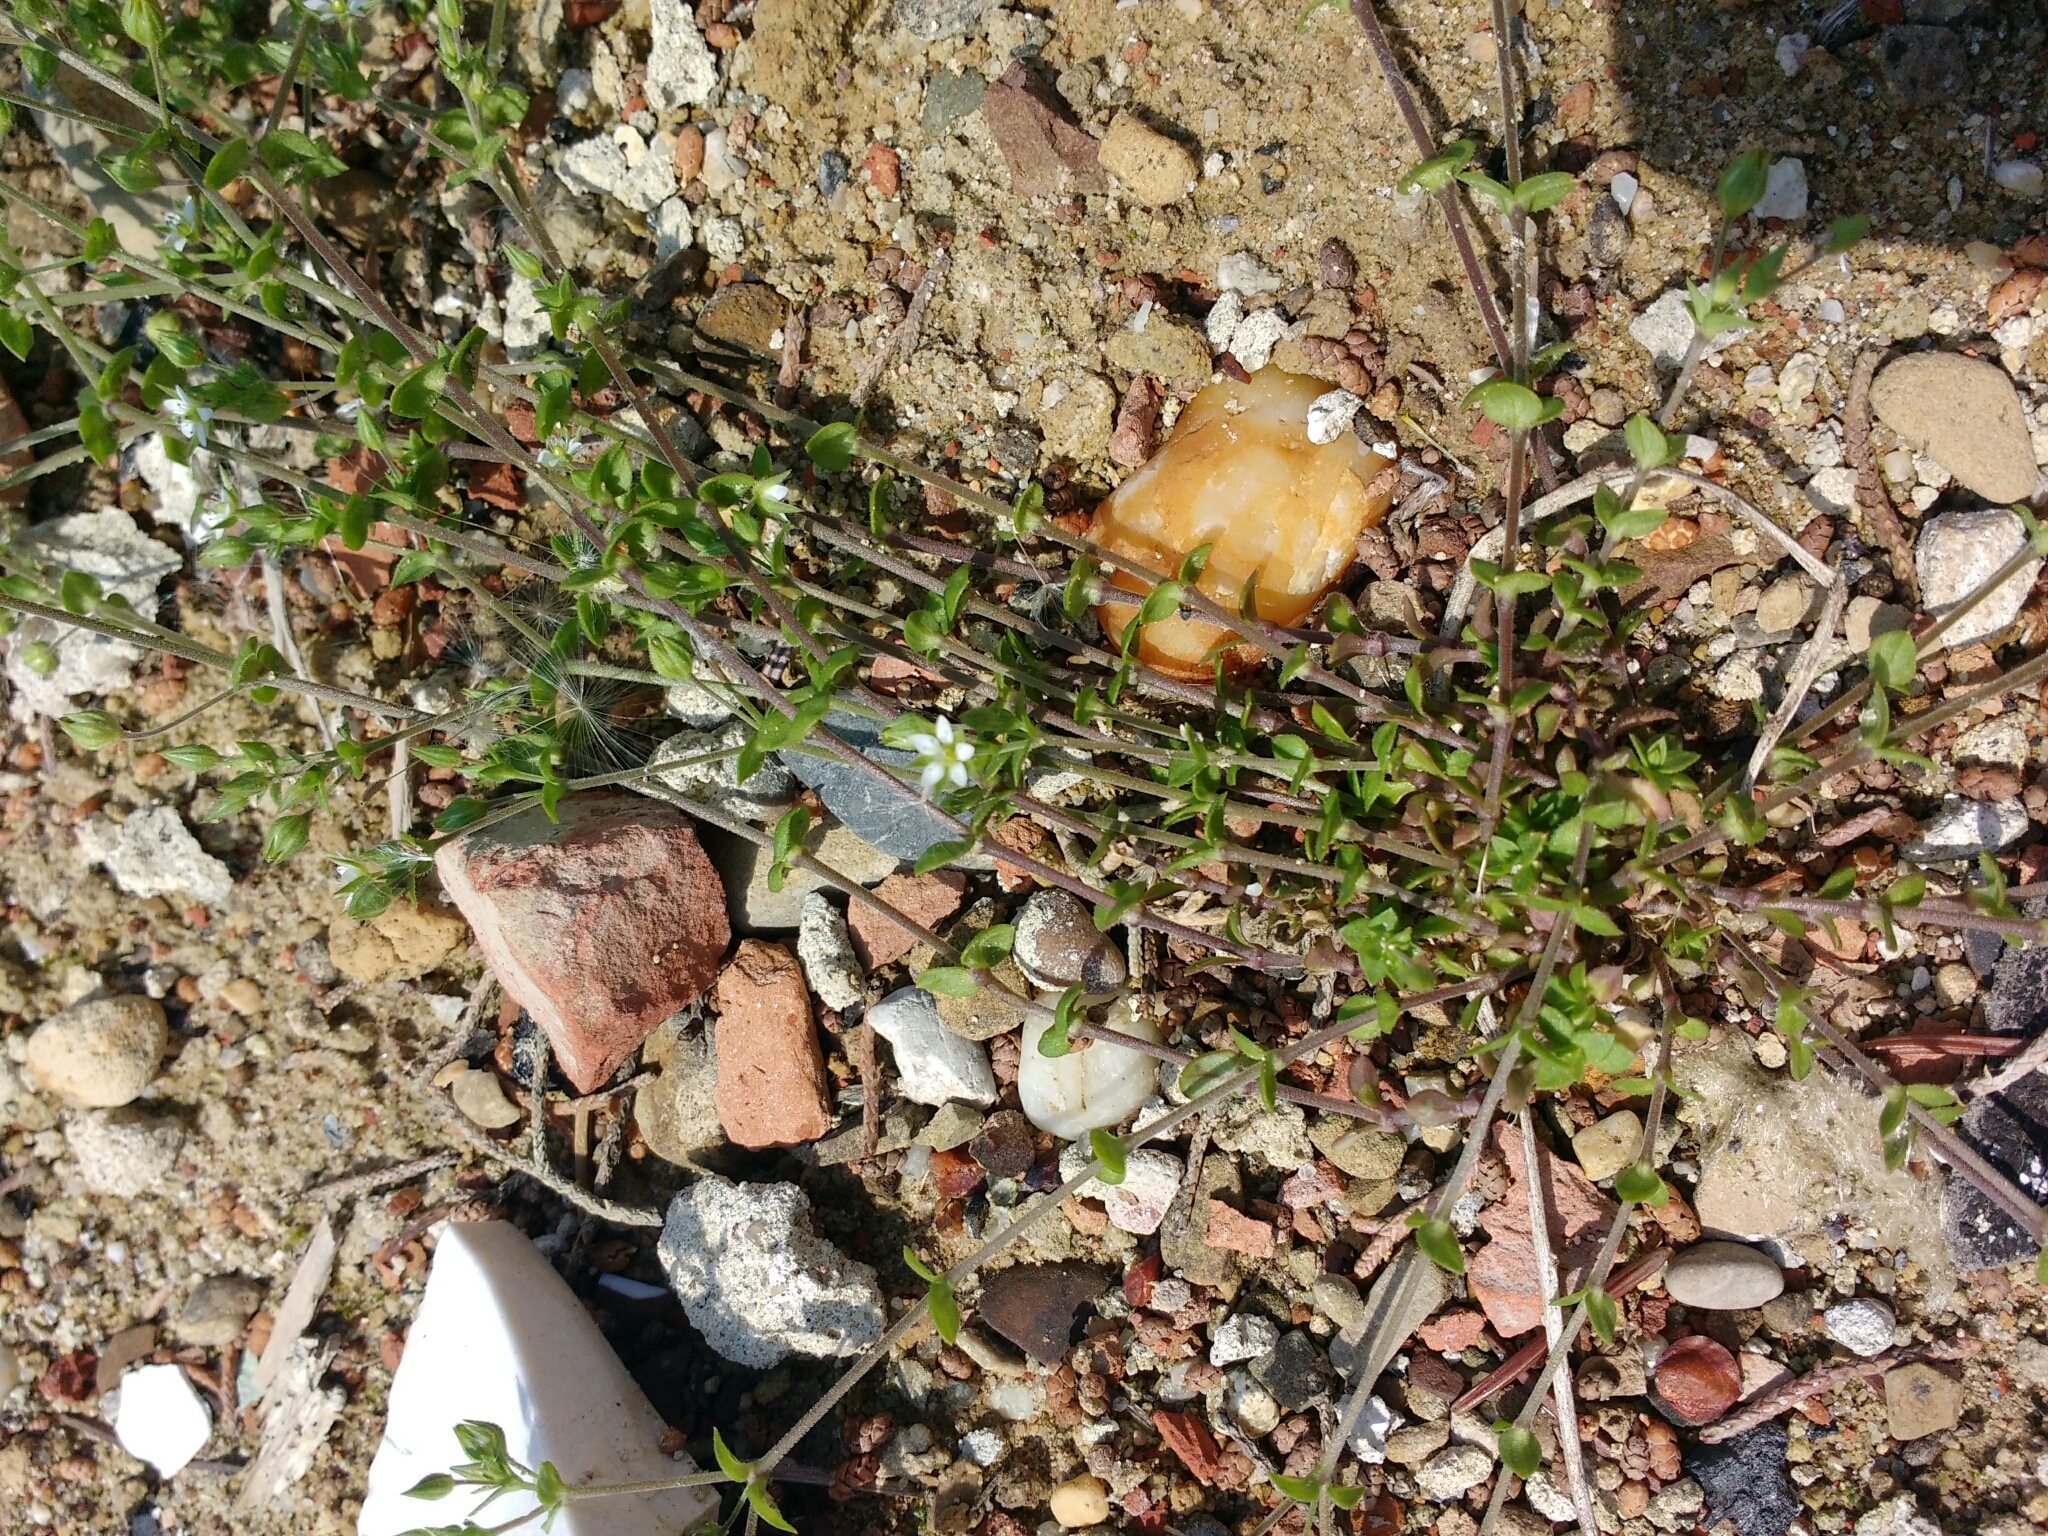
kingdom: Plantae
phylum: Tracheophyta
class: Magnoliopsida
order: Caryophyllales
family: Caryophyllaceae
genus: Arenaria
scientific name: Arenaria serpyllifolia
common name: Thyme-leaved sandwort
